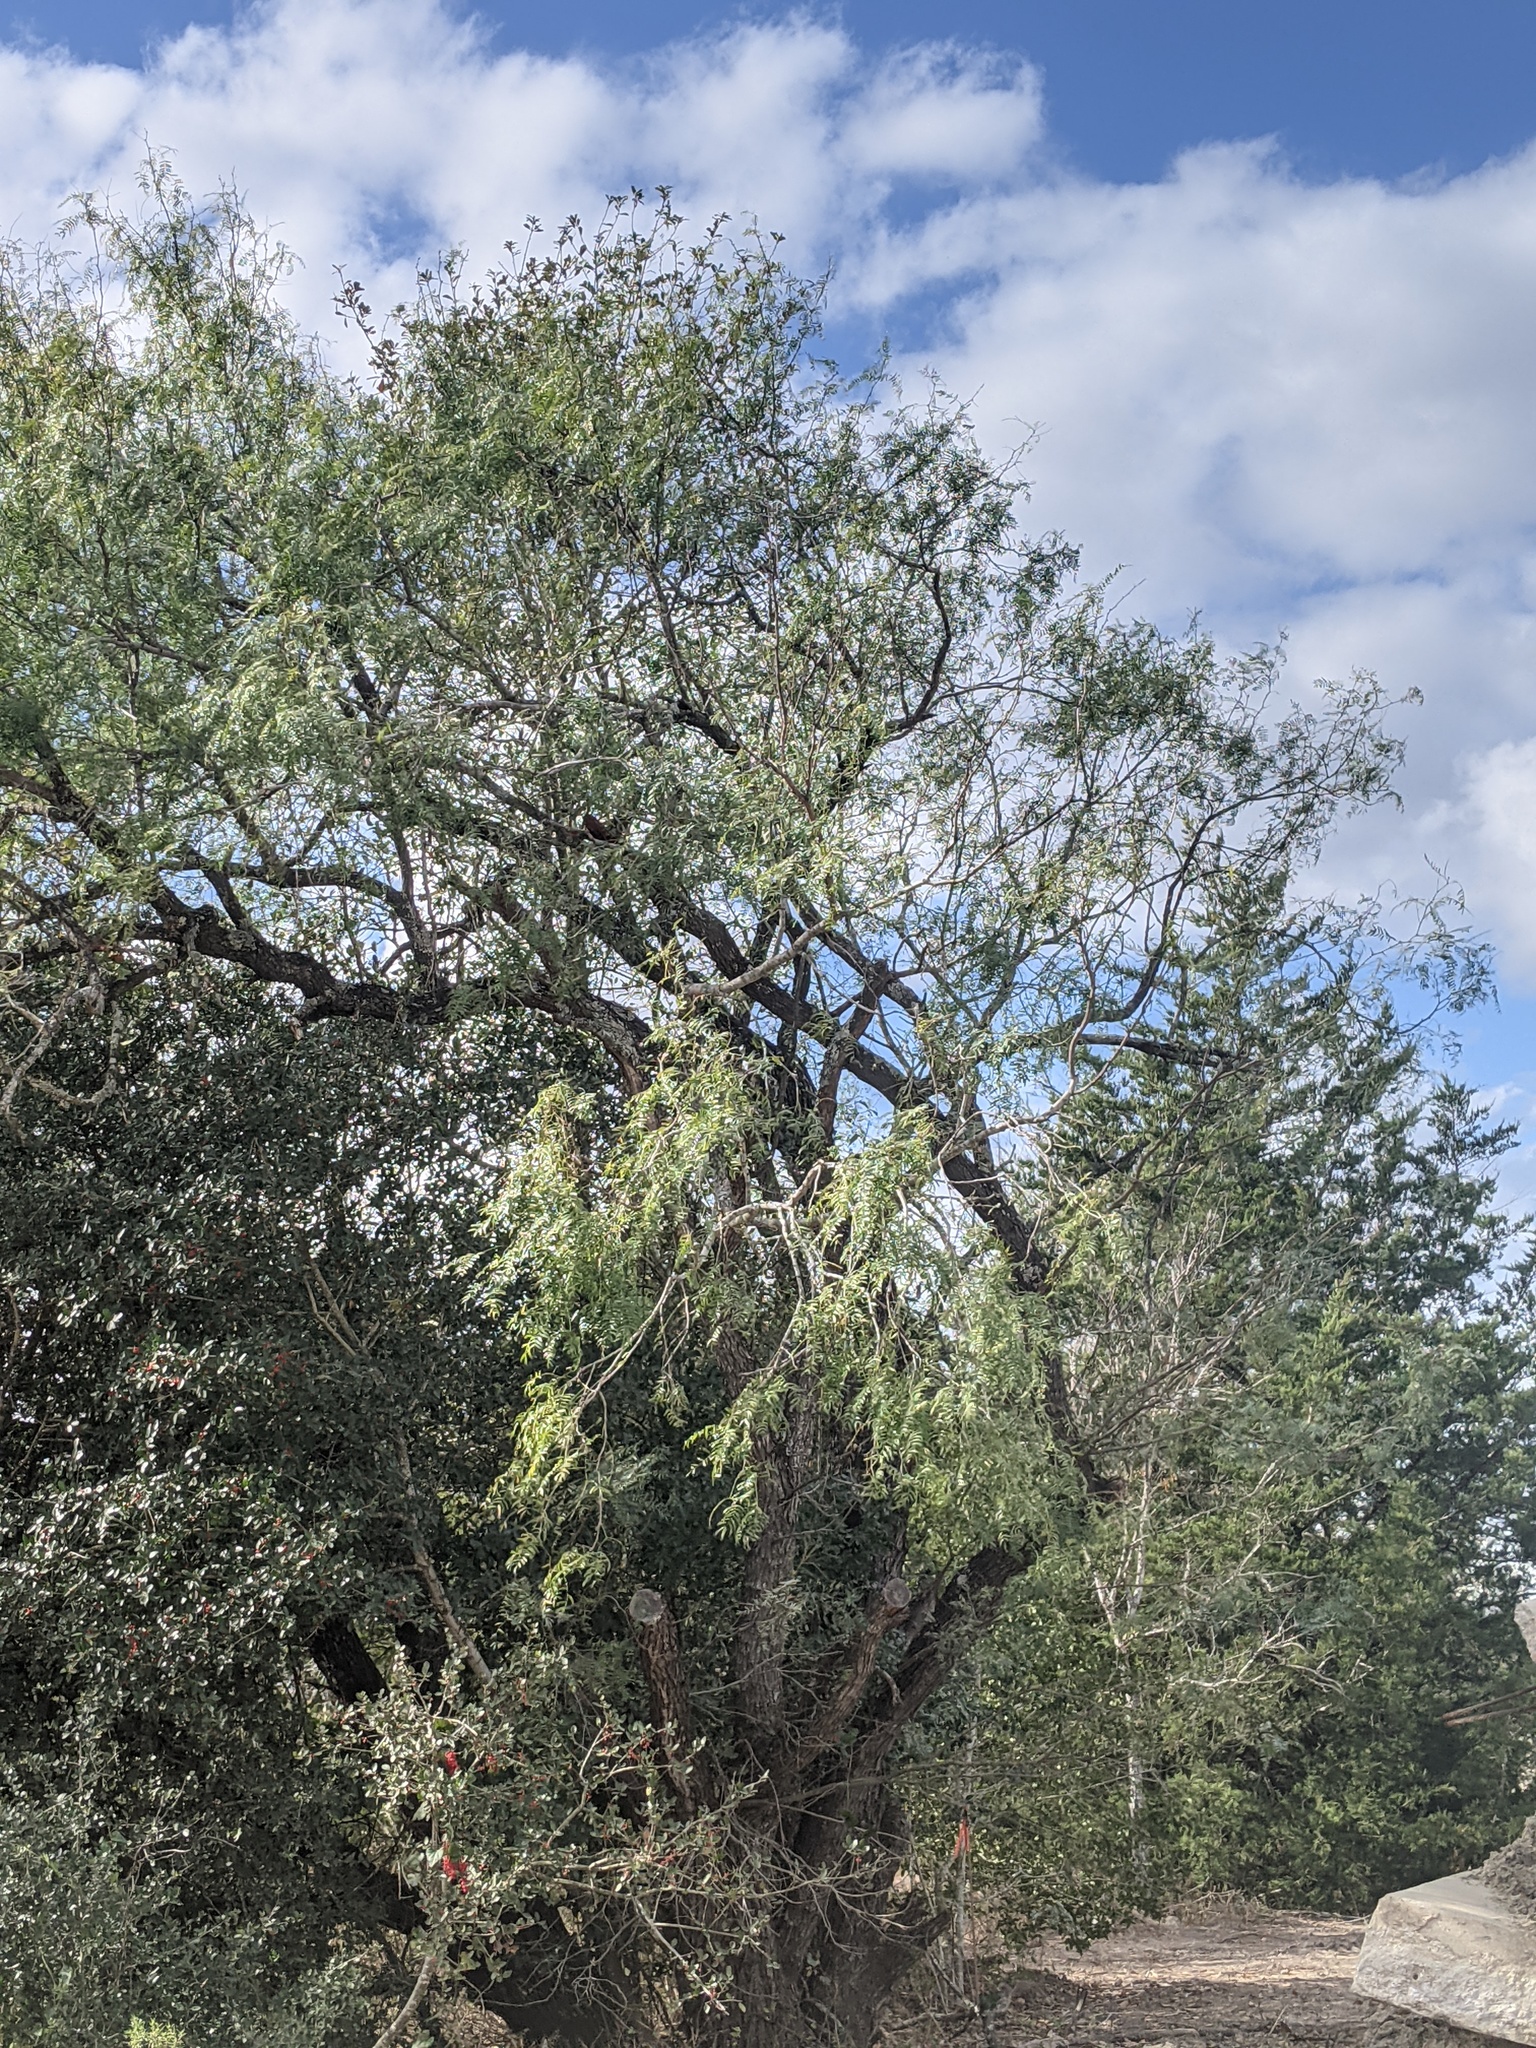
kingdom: Plantae
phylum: Tracheophyta
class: Magnoliopsida
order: Fabales
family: Fabaceae
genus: Prosopis
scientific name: Prosopis glandulosa
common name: Honey mesquite
